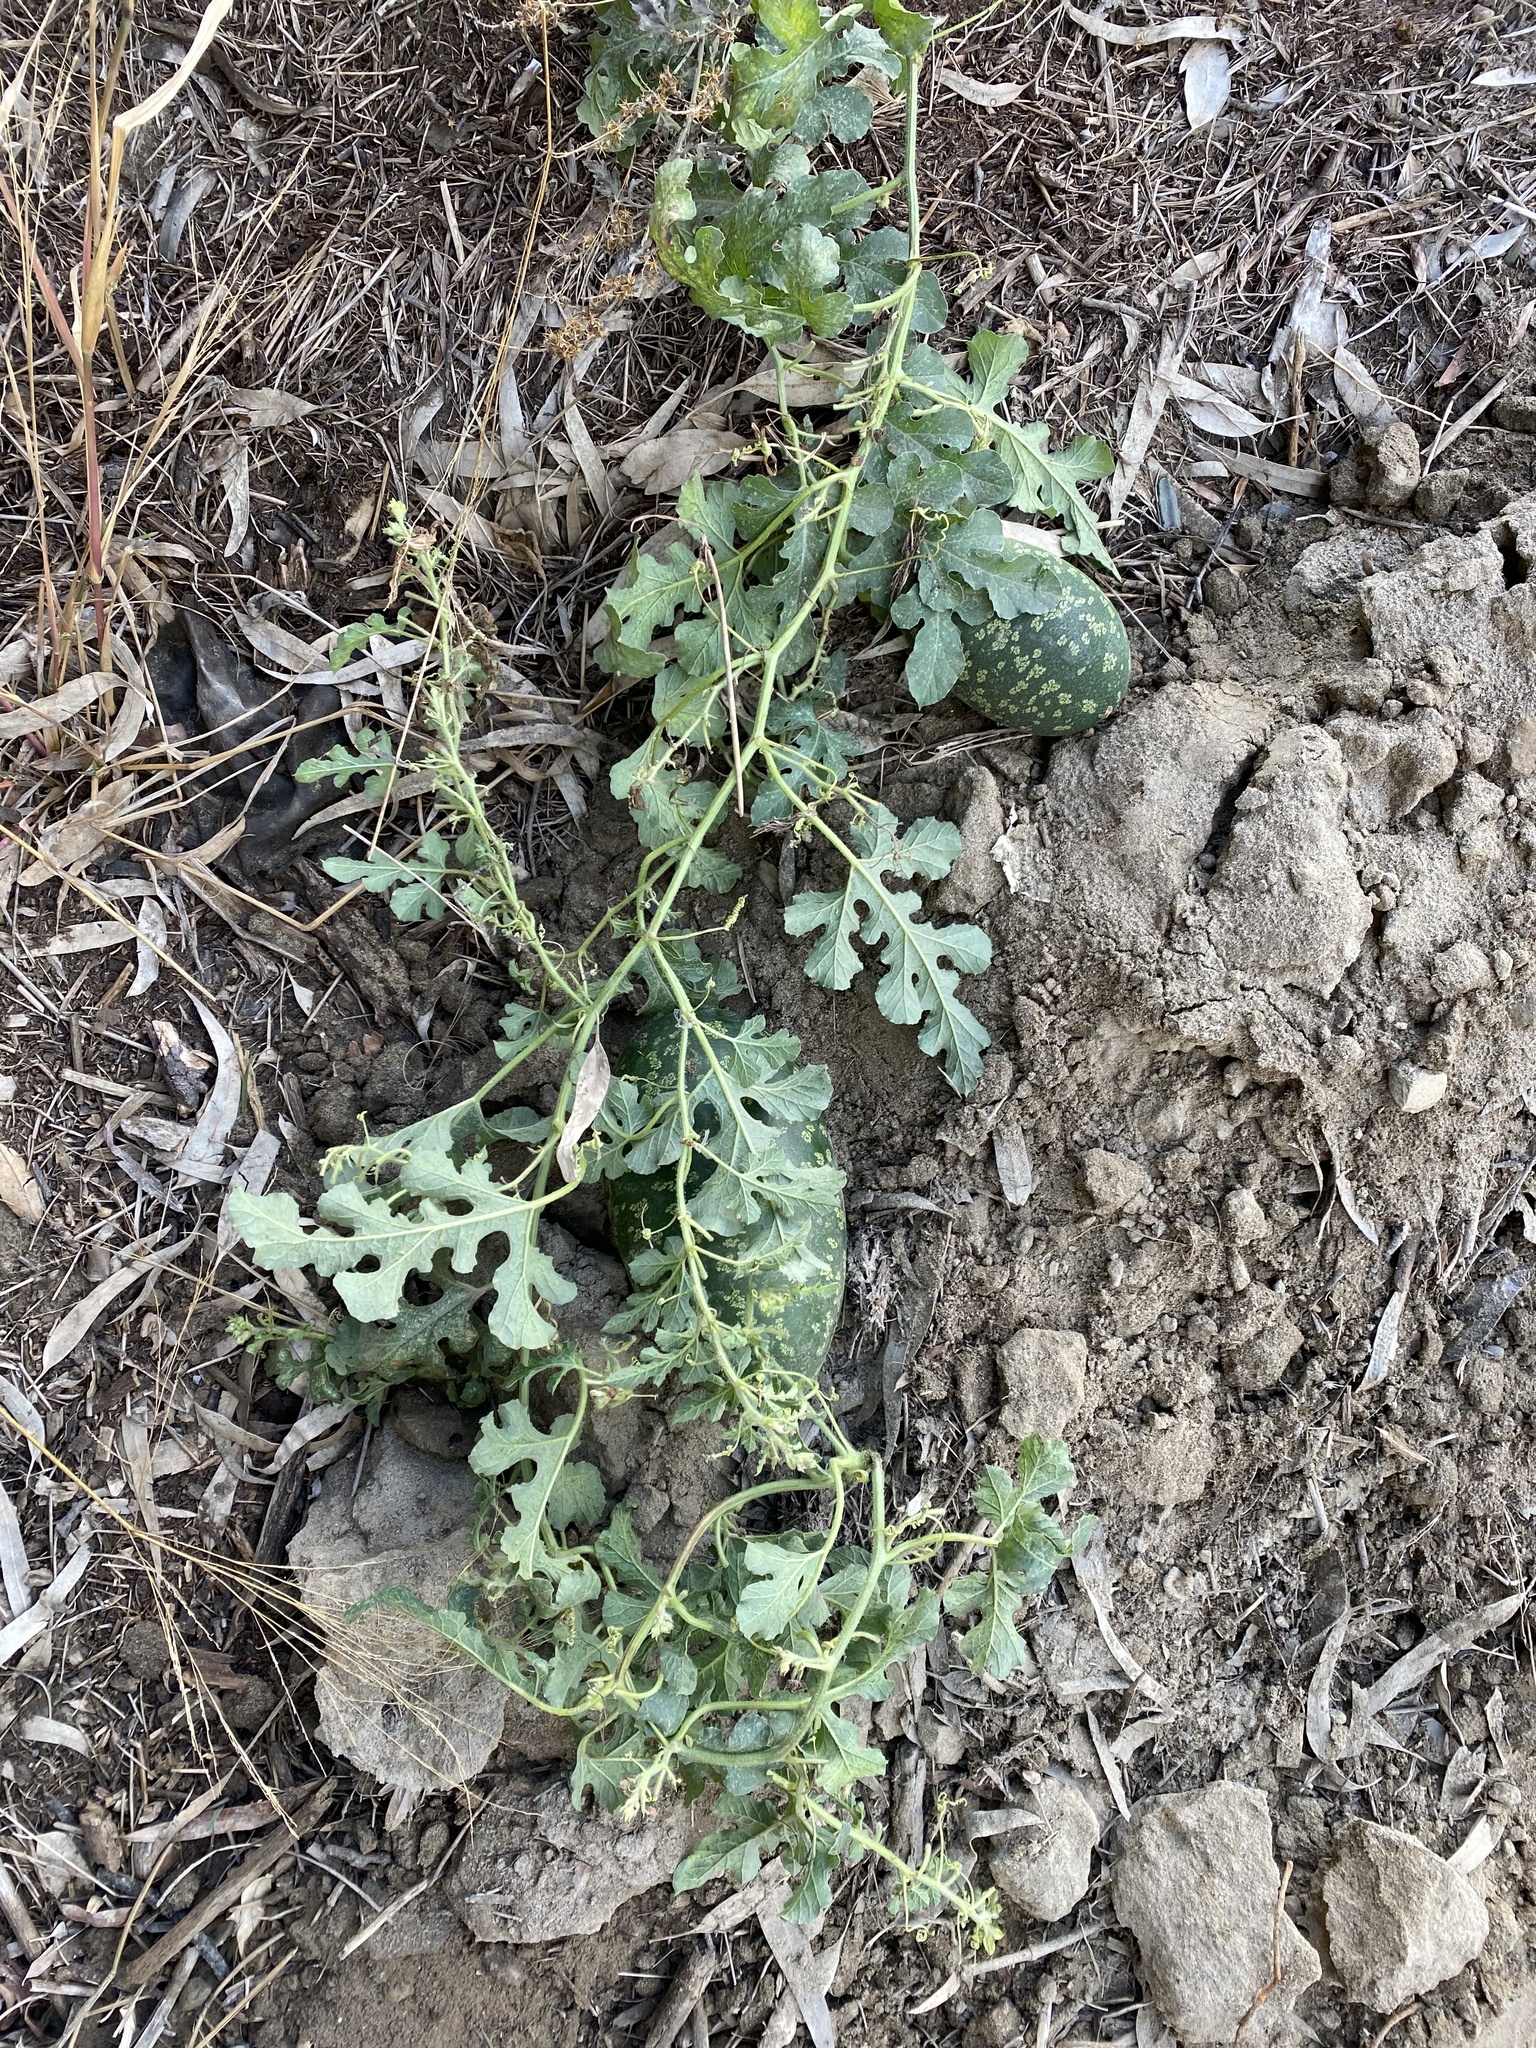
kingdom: Plantae
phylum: Tracheophyta
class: Magnoliopsida
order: Cucurbitales
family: Cucurbitaceae
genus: Citrullus
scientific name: Citrullus amarus
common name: Fodder-melon
